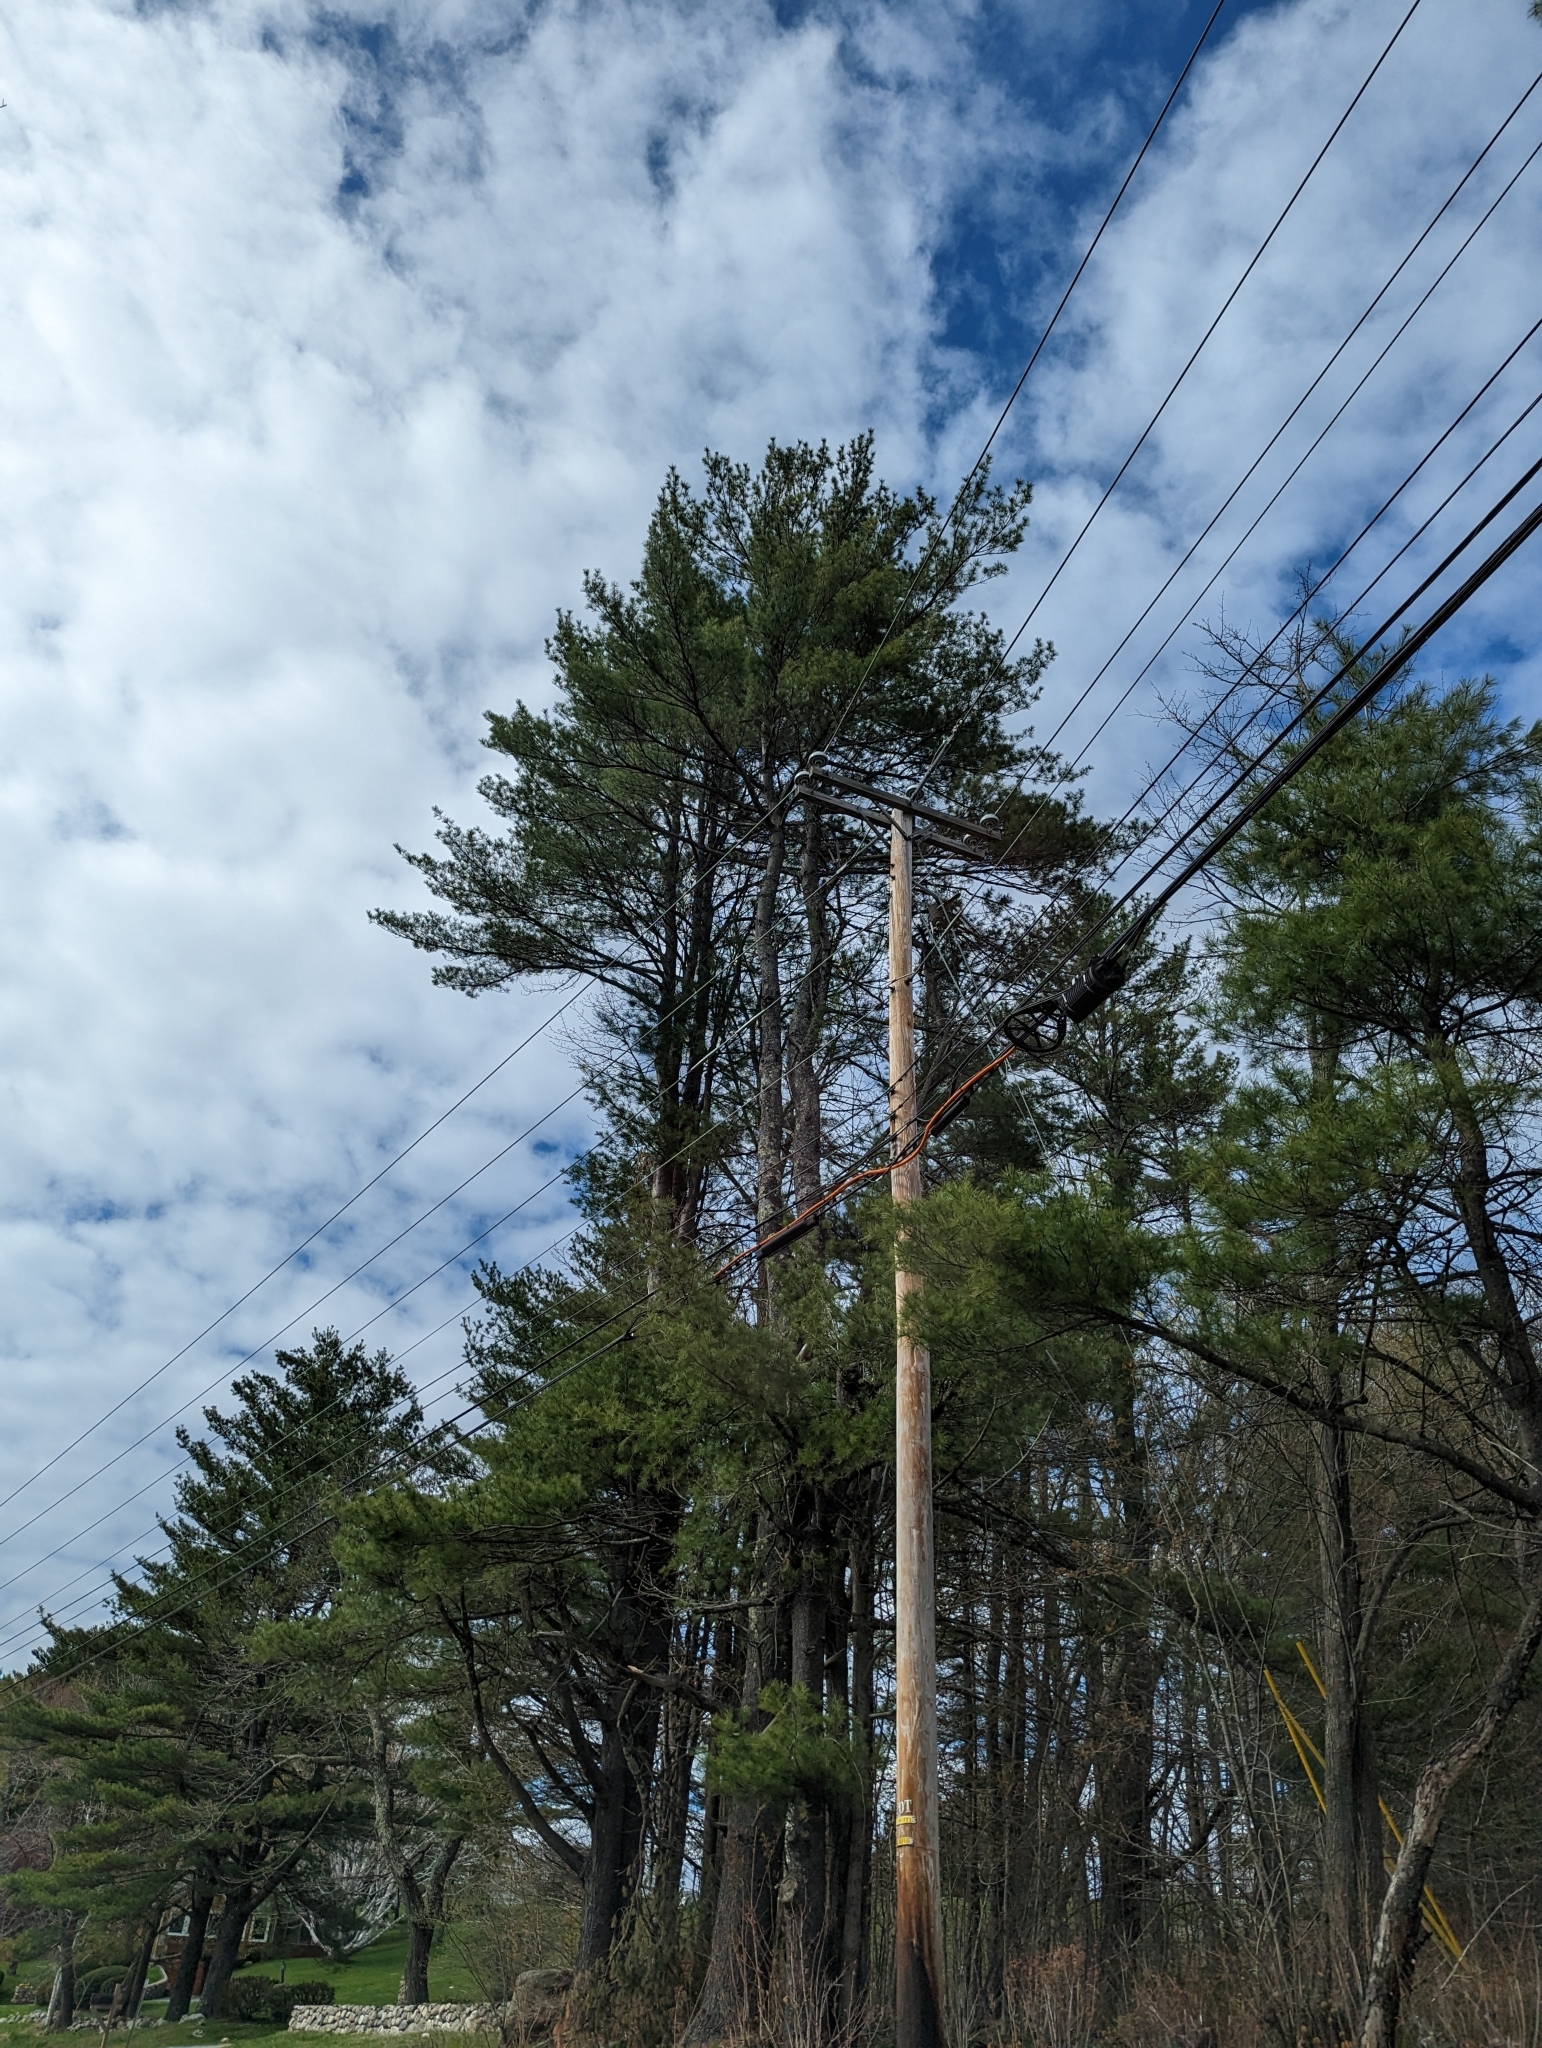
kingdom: Plantae
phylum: Tracheophyta
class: Pinopsida
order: Pinales
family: Pinaceae
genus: Pinus
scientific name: Pinus strobus
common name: Weymouth pine
